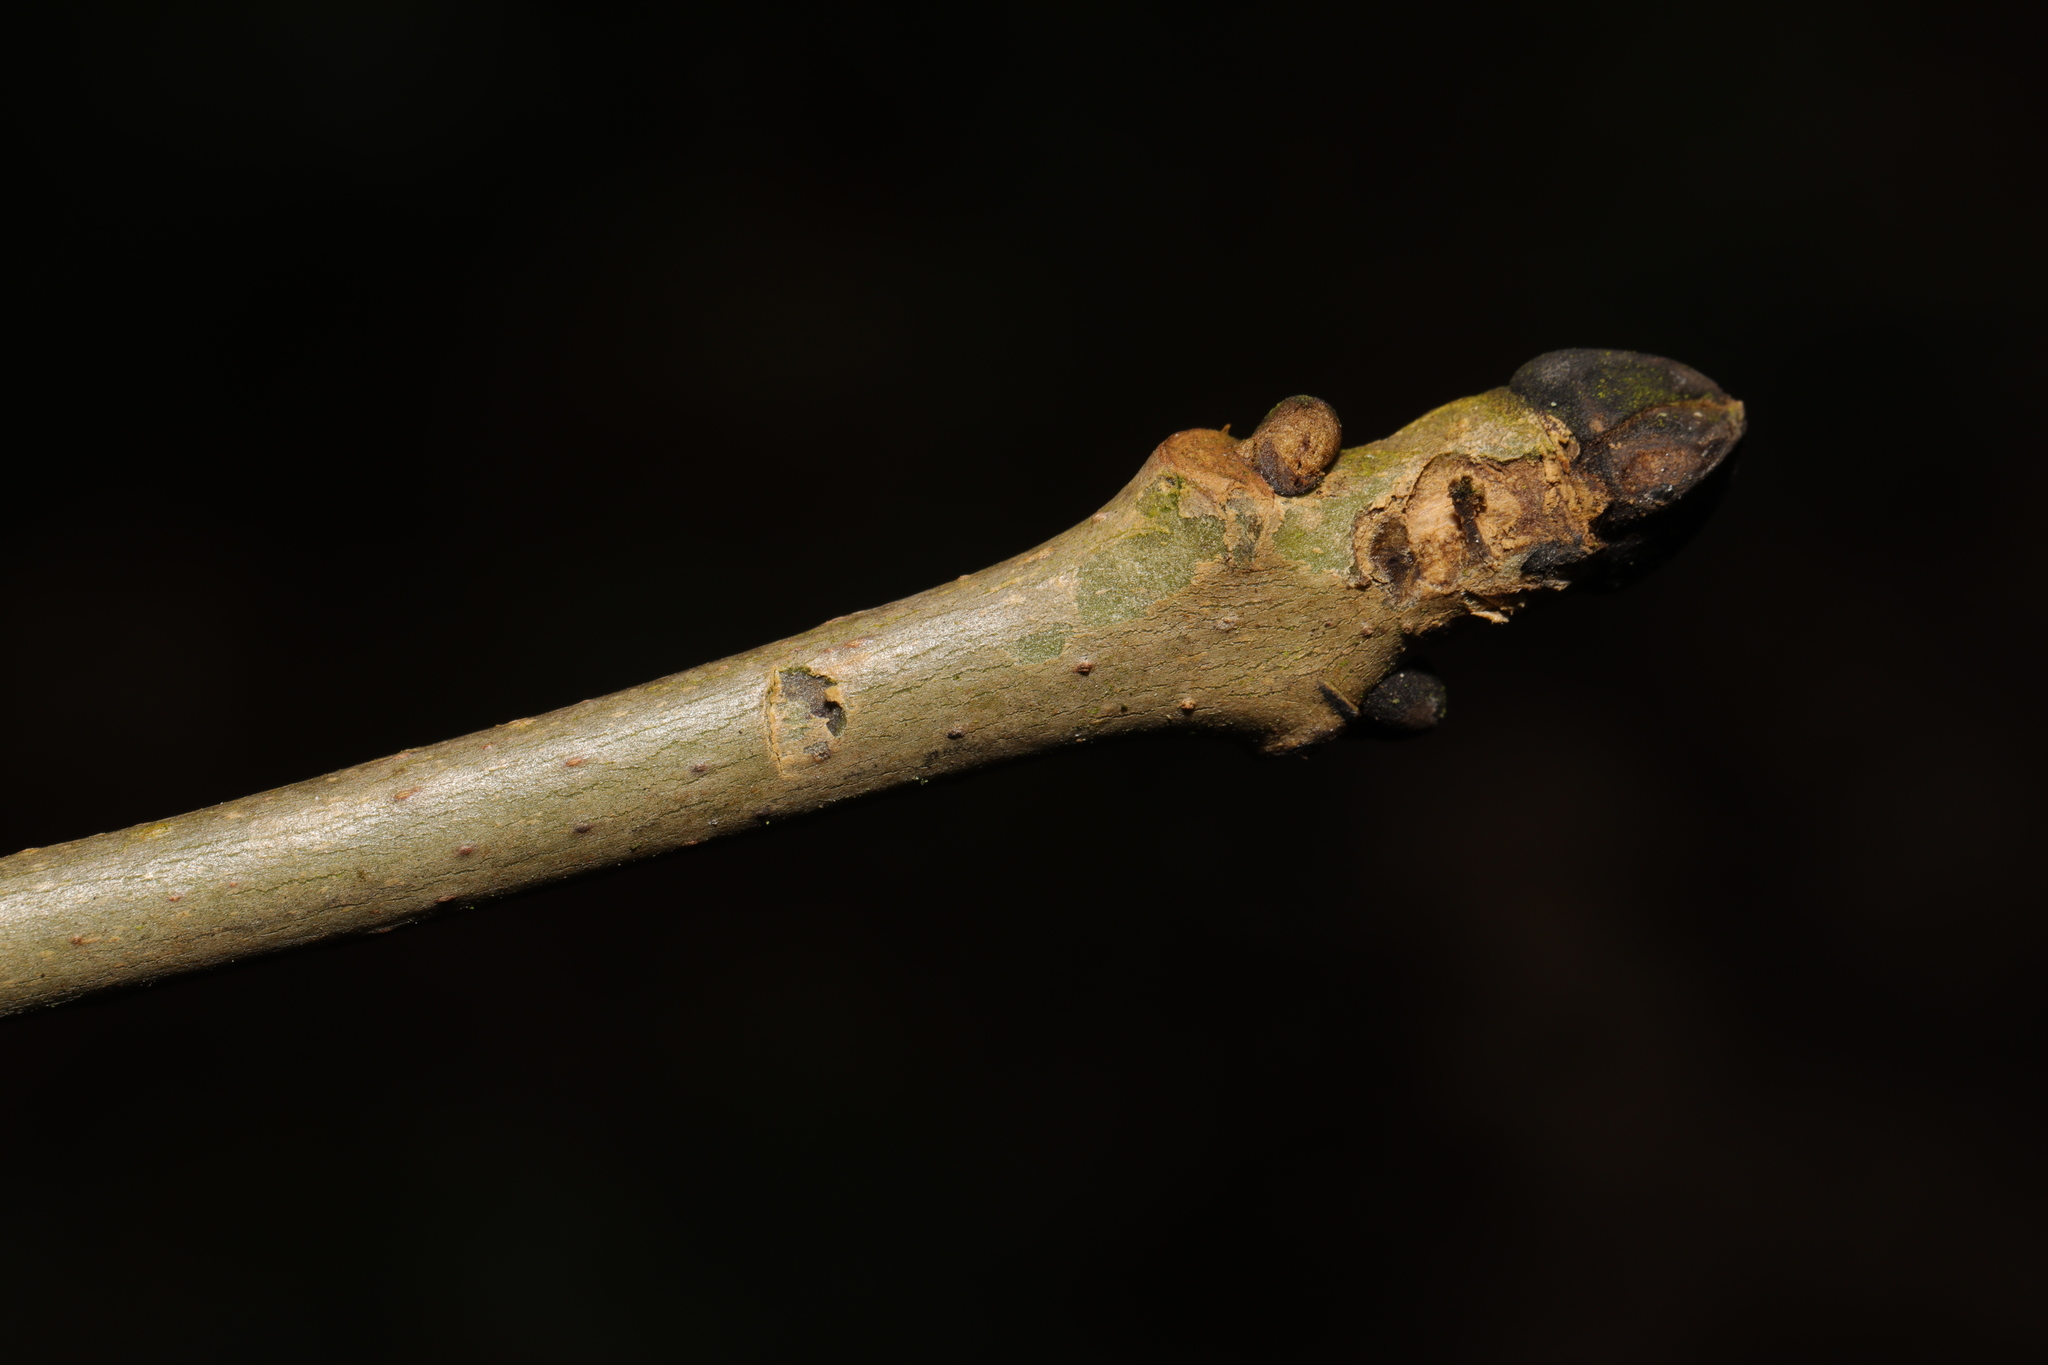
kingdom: Plantae
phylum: Tracheophyta
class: Magnoliopsida
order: Lamiales
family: Oleaceae
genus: Fraxinus
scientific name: Fraxinus excelsior
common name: European ash
